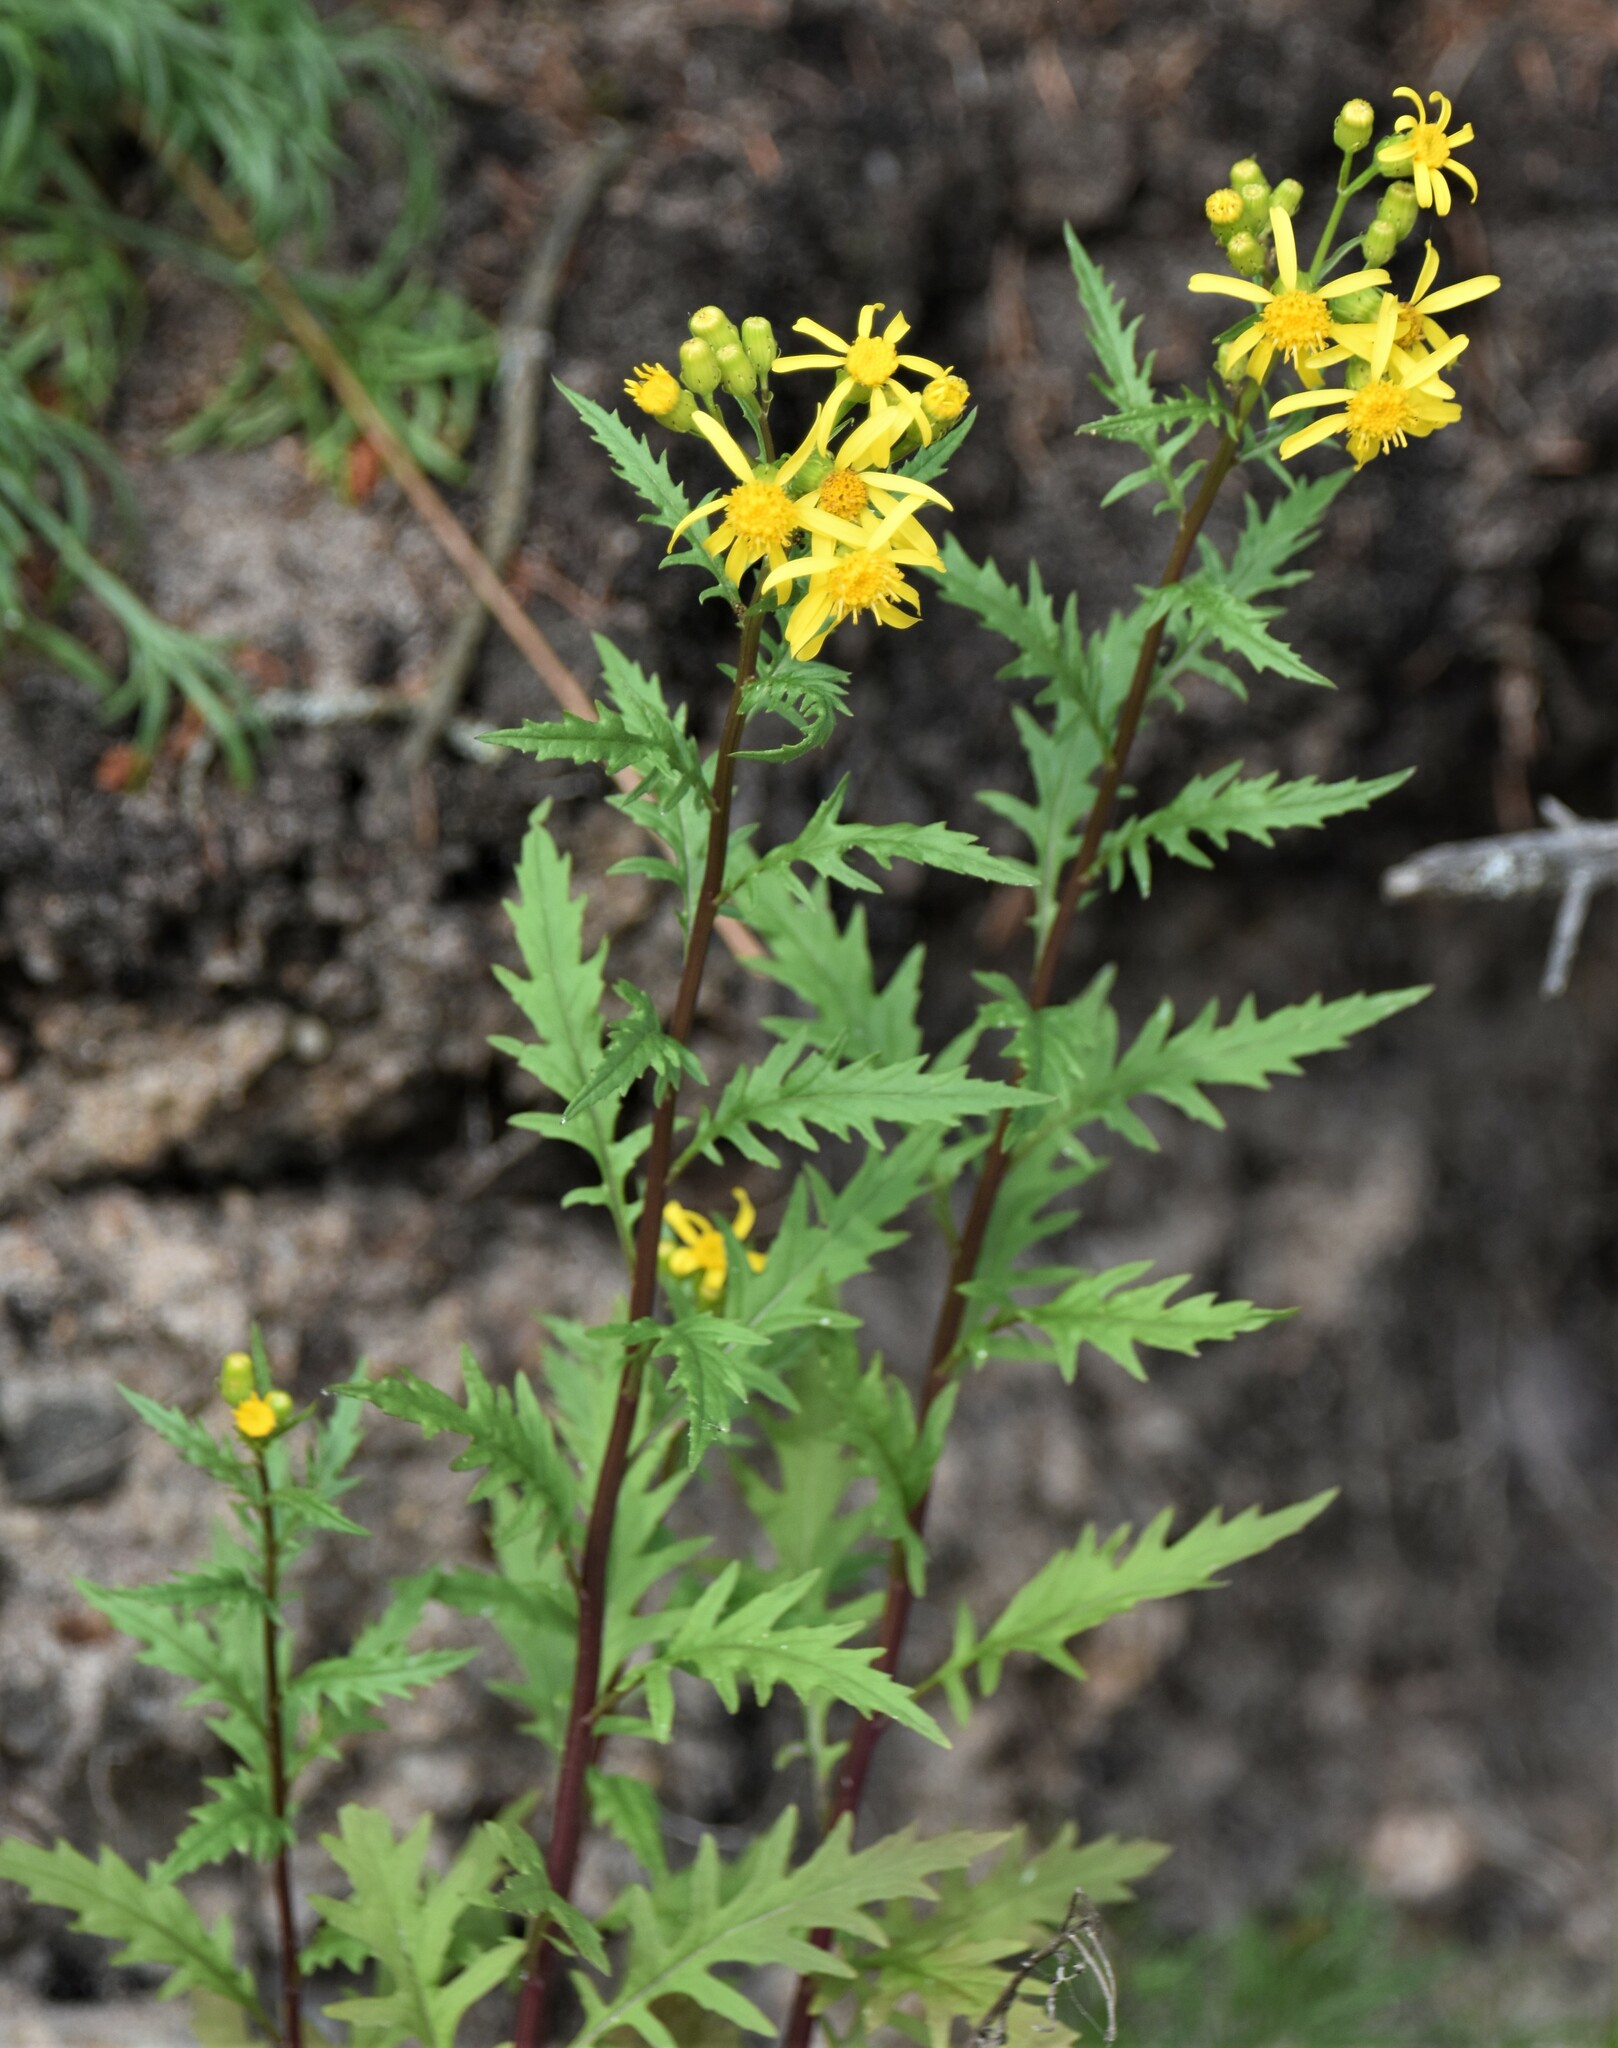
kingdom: Plantae
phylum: Tracheophyta
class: Magnoliopsida
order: Asterales
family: Asteraceae
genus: Senecio
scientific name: Senecio eremophilus
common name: Desert ragwort
